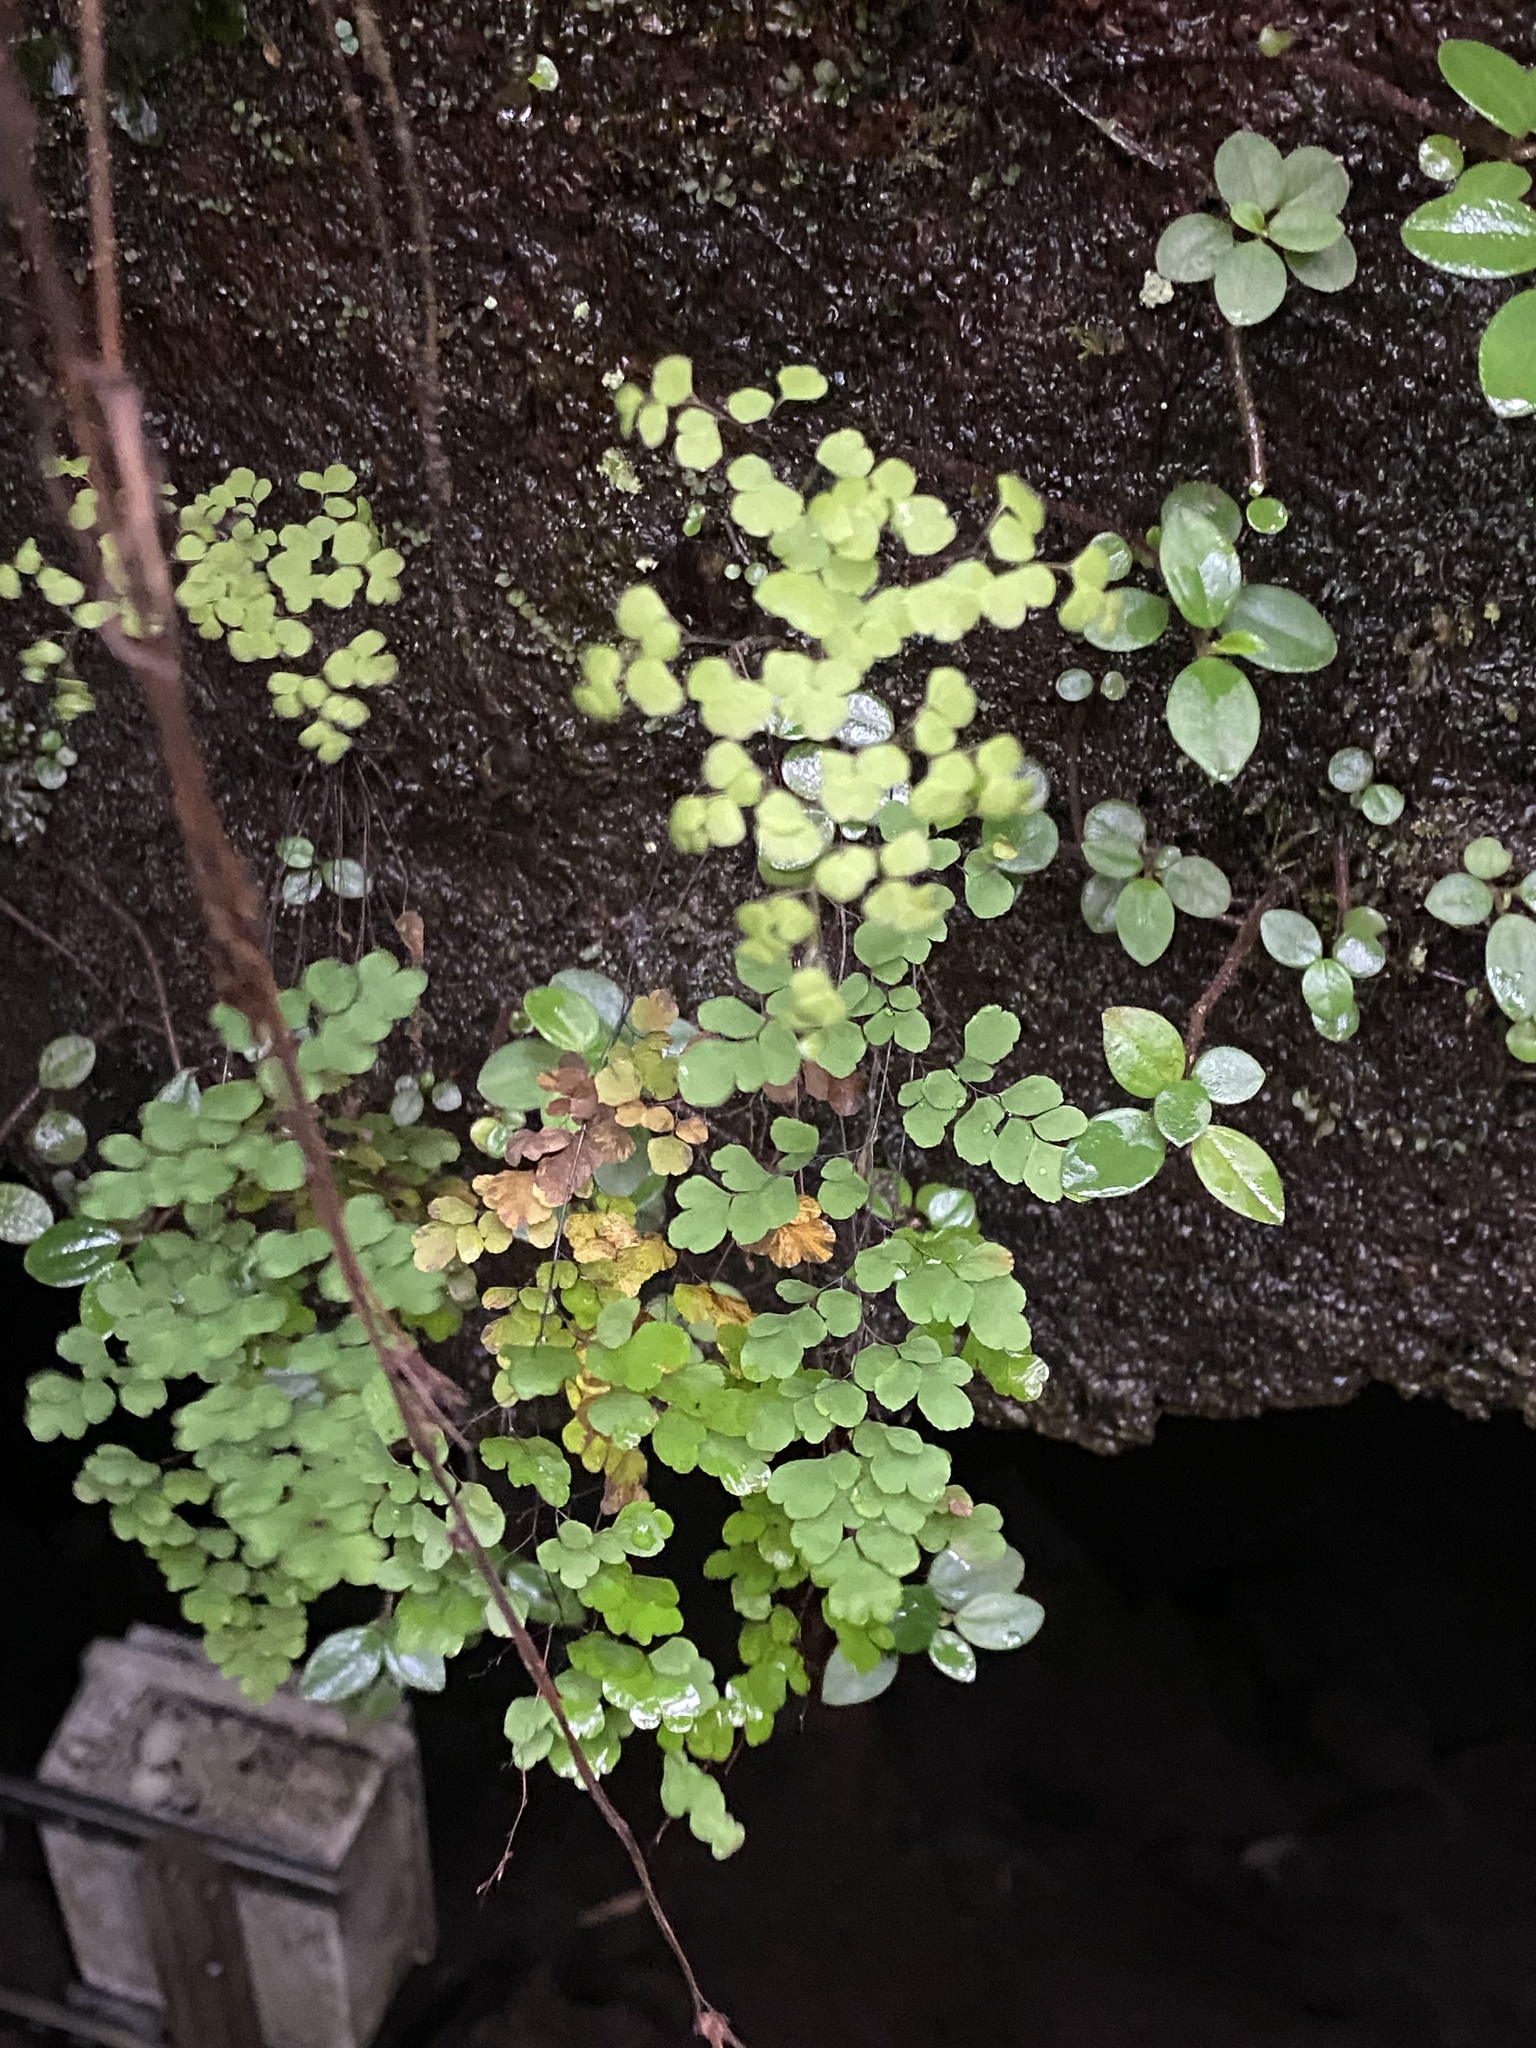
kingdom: Plantae
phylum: Tracheophyta
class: Polypodiopsida
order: Polypodiales
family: Pteridaceae
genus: Adiantum
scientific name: Adiantum raddianum
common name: Delta maidenhair fern
